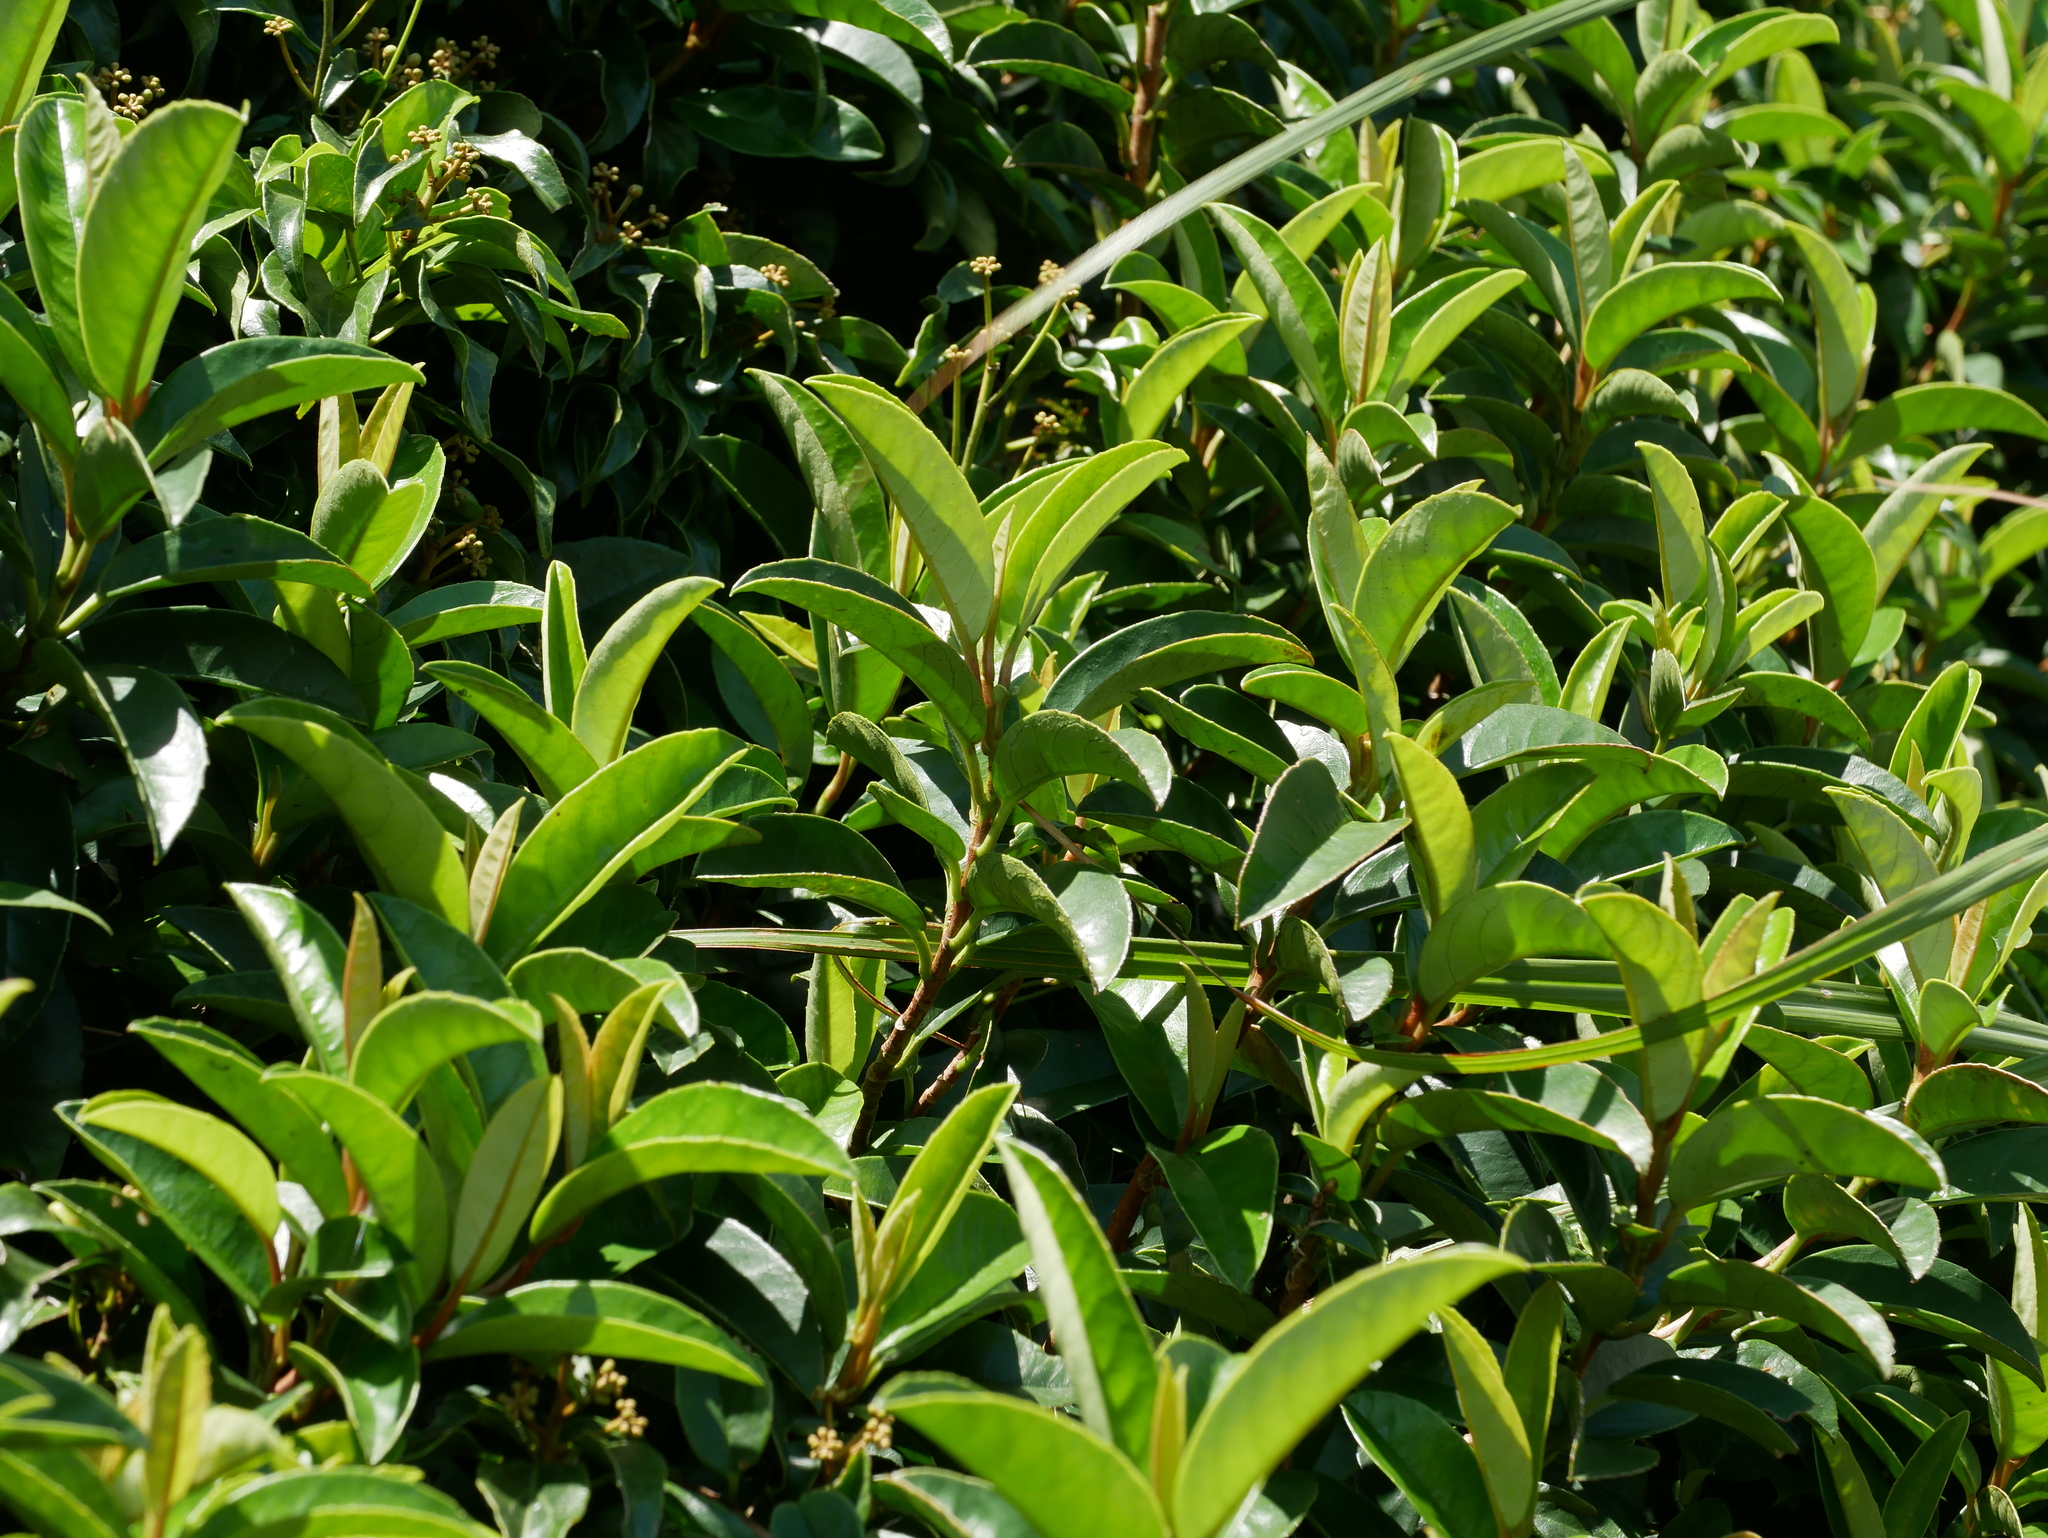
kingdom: Plantae
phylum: Tracheophyta
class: Magnoliopsida
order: Cornales
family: Hydrangeaceae
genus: Hydrangea
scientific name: Hydrangea viburnoides
